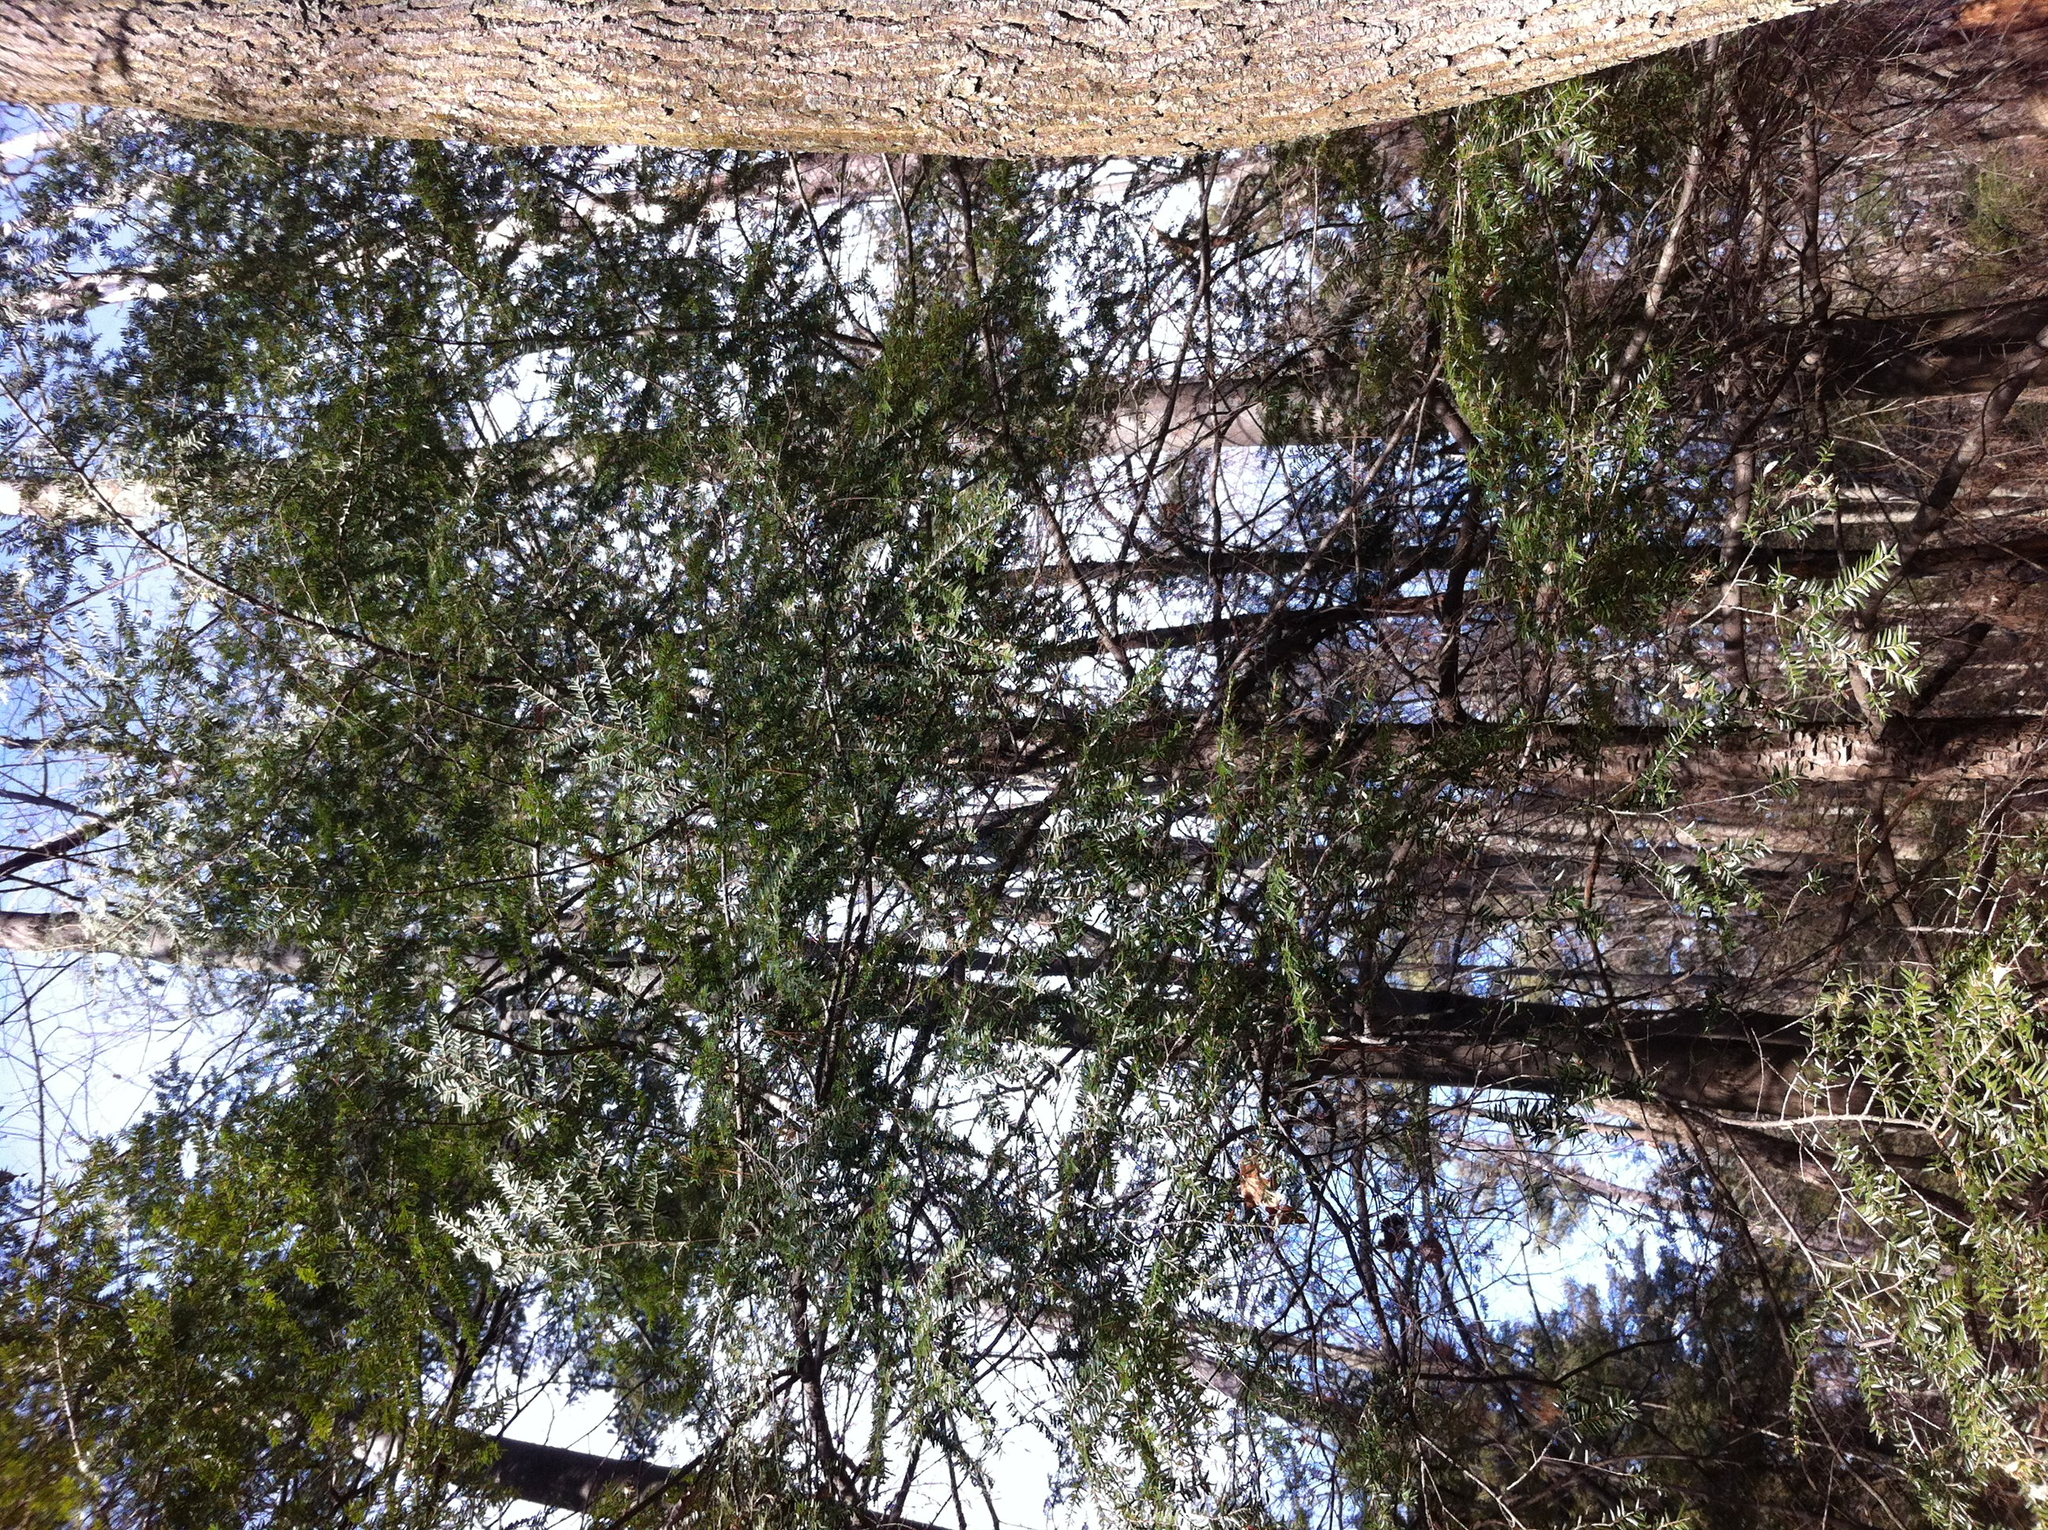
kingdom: Plantae
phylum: Tracheophyta
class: Pinopsida
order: Pinales
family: Pinaceae
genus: Tsuga
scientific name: Tsuga canadensis
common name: Eastern hemlock
